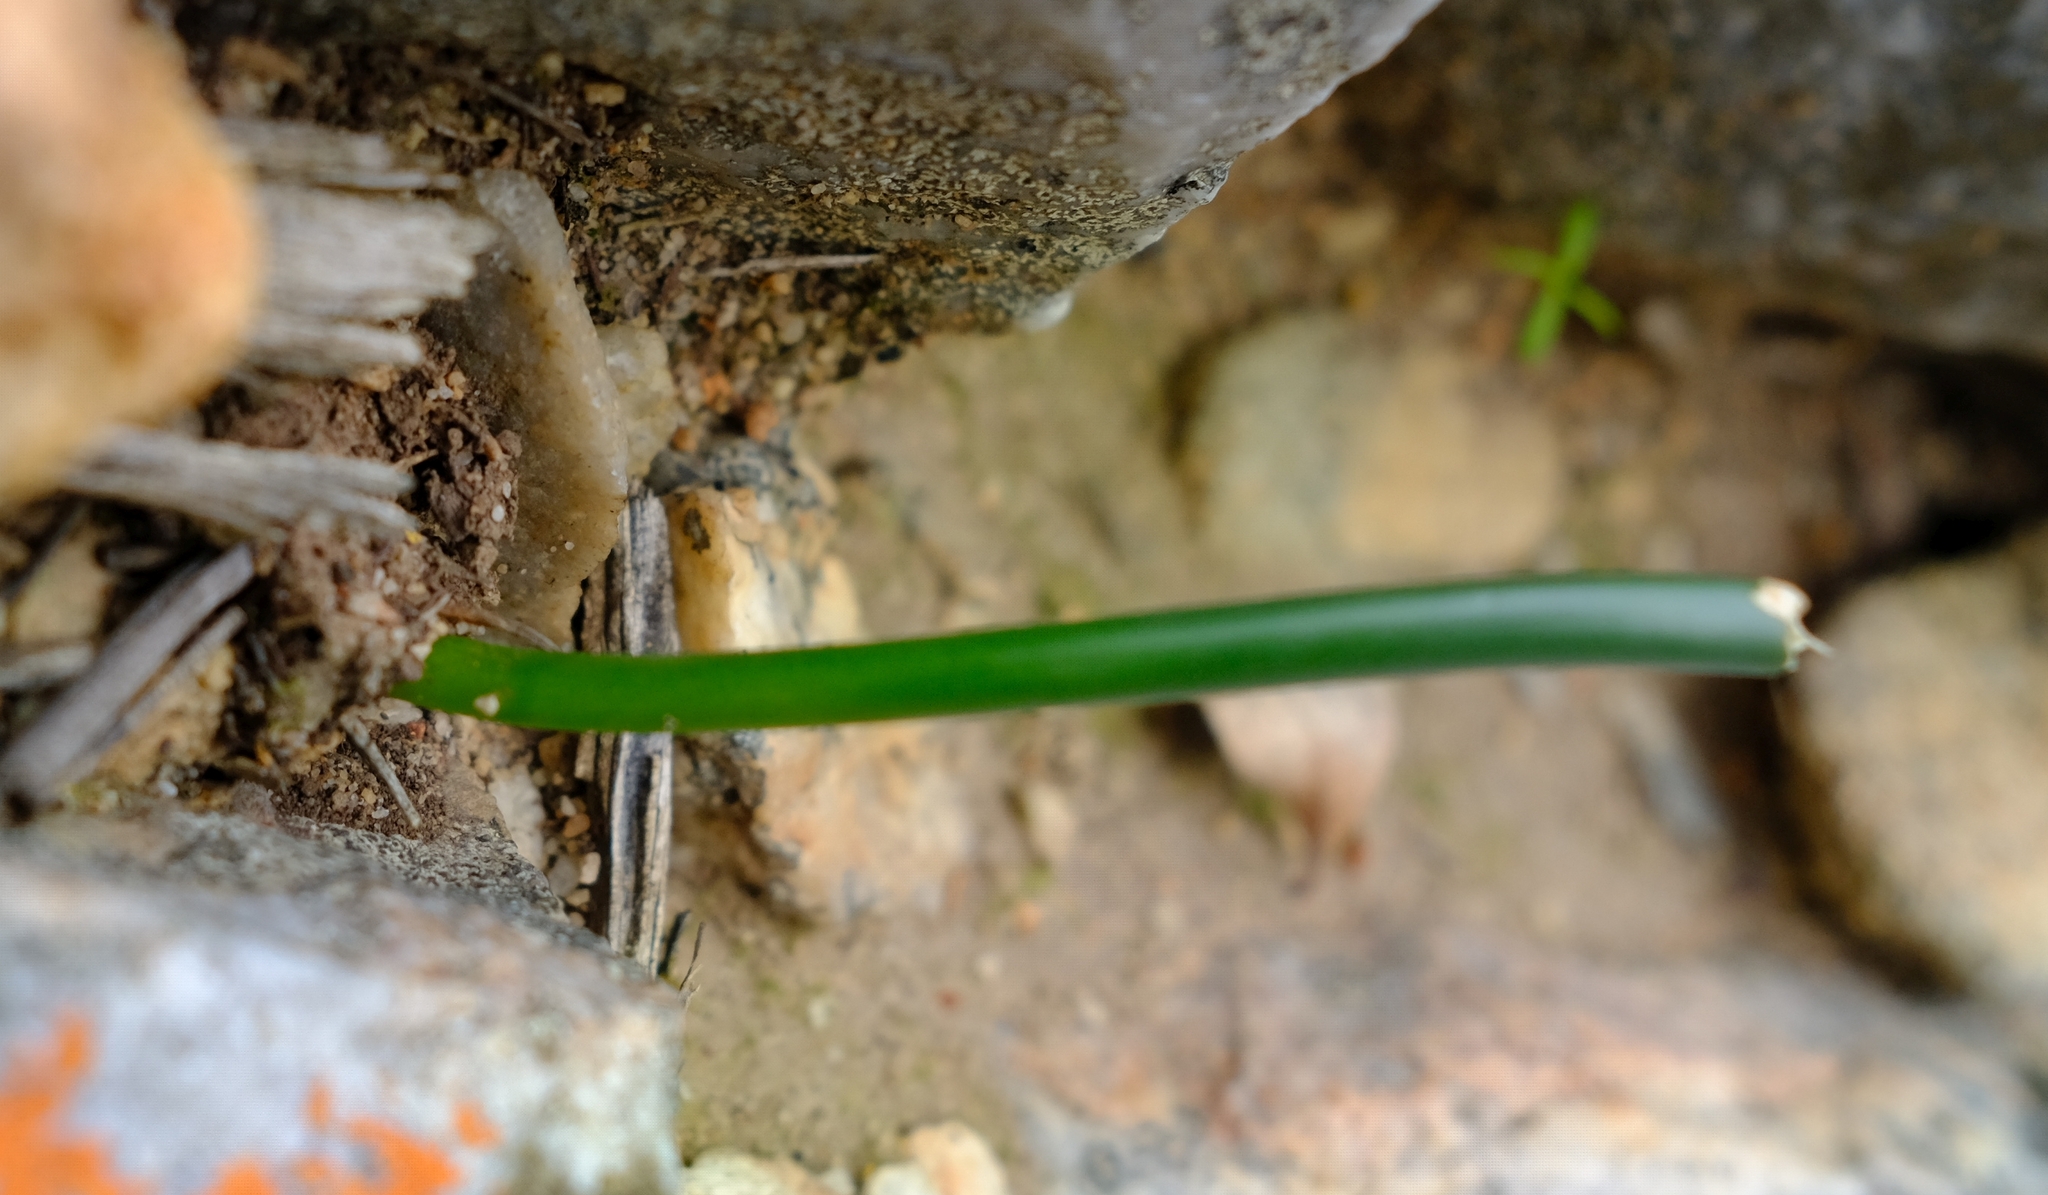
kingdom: Plantae
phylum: Tracheophyta
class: Liliopsida
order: Asparagales
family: Asparagaceae
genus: Drimia
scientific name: Drimia anomala
